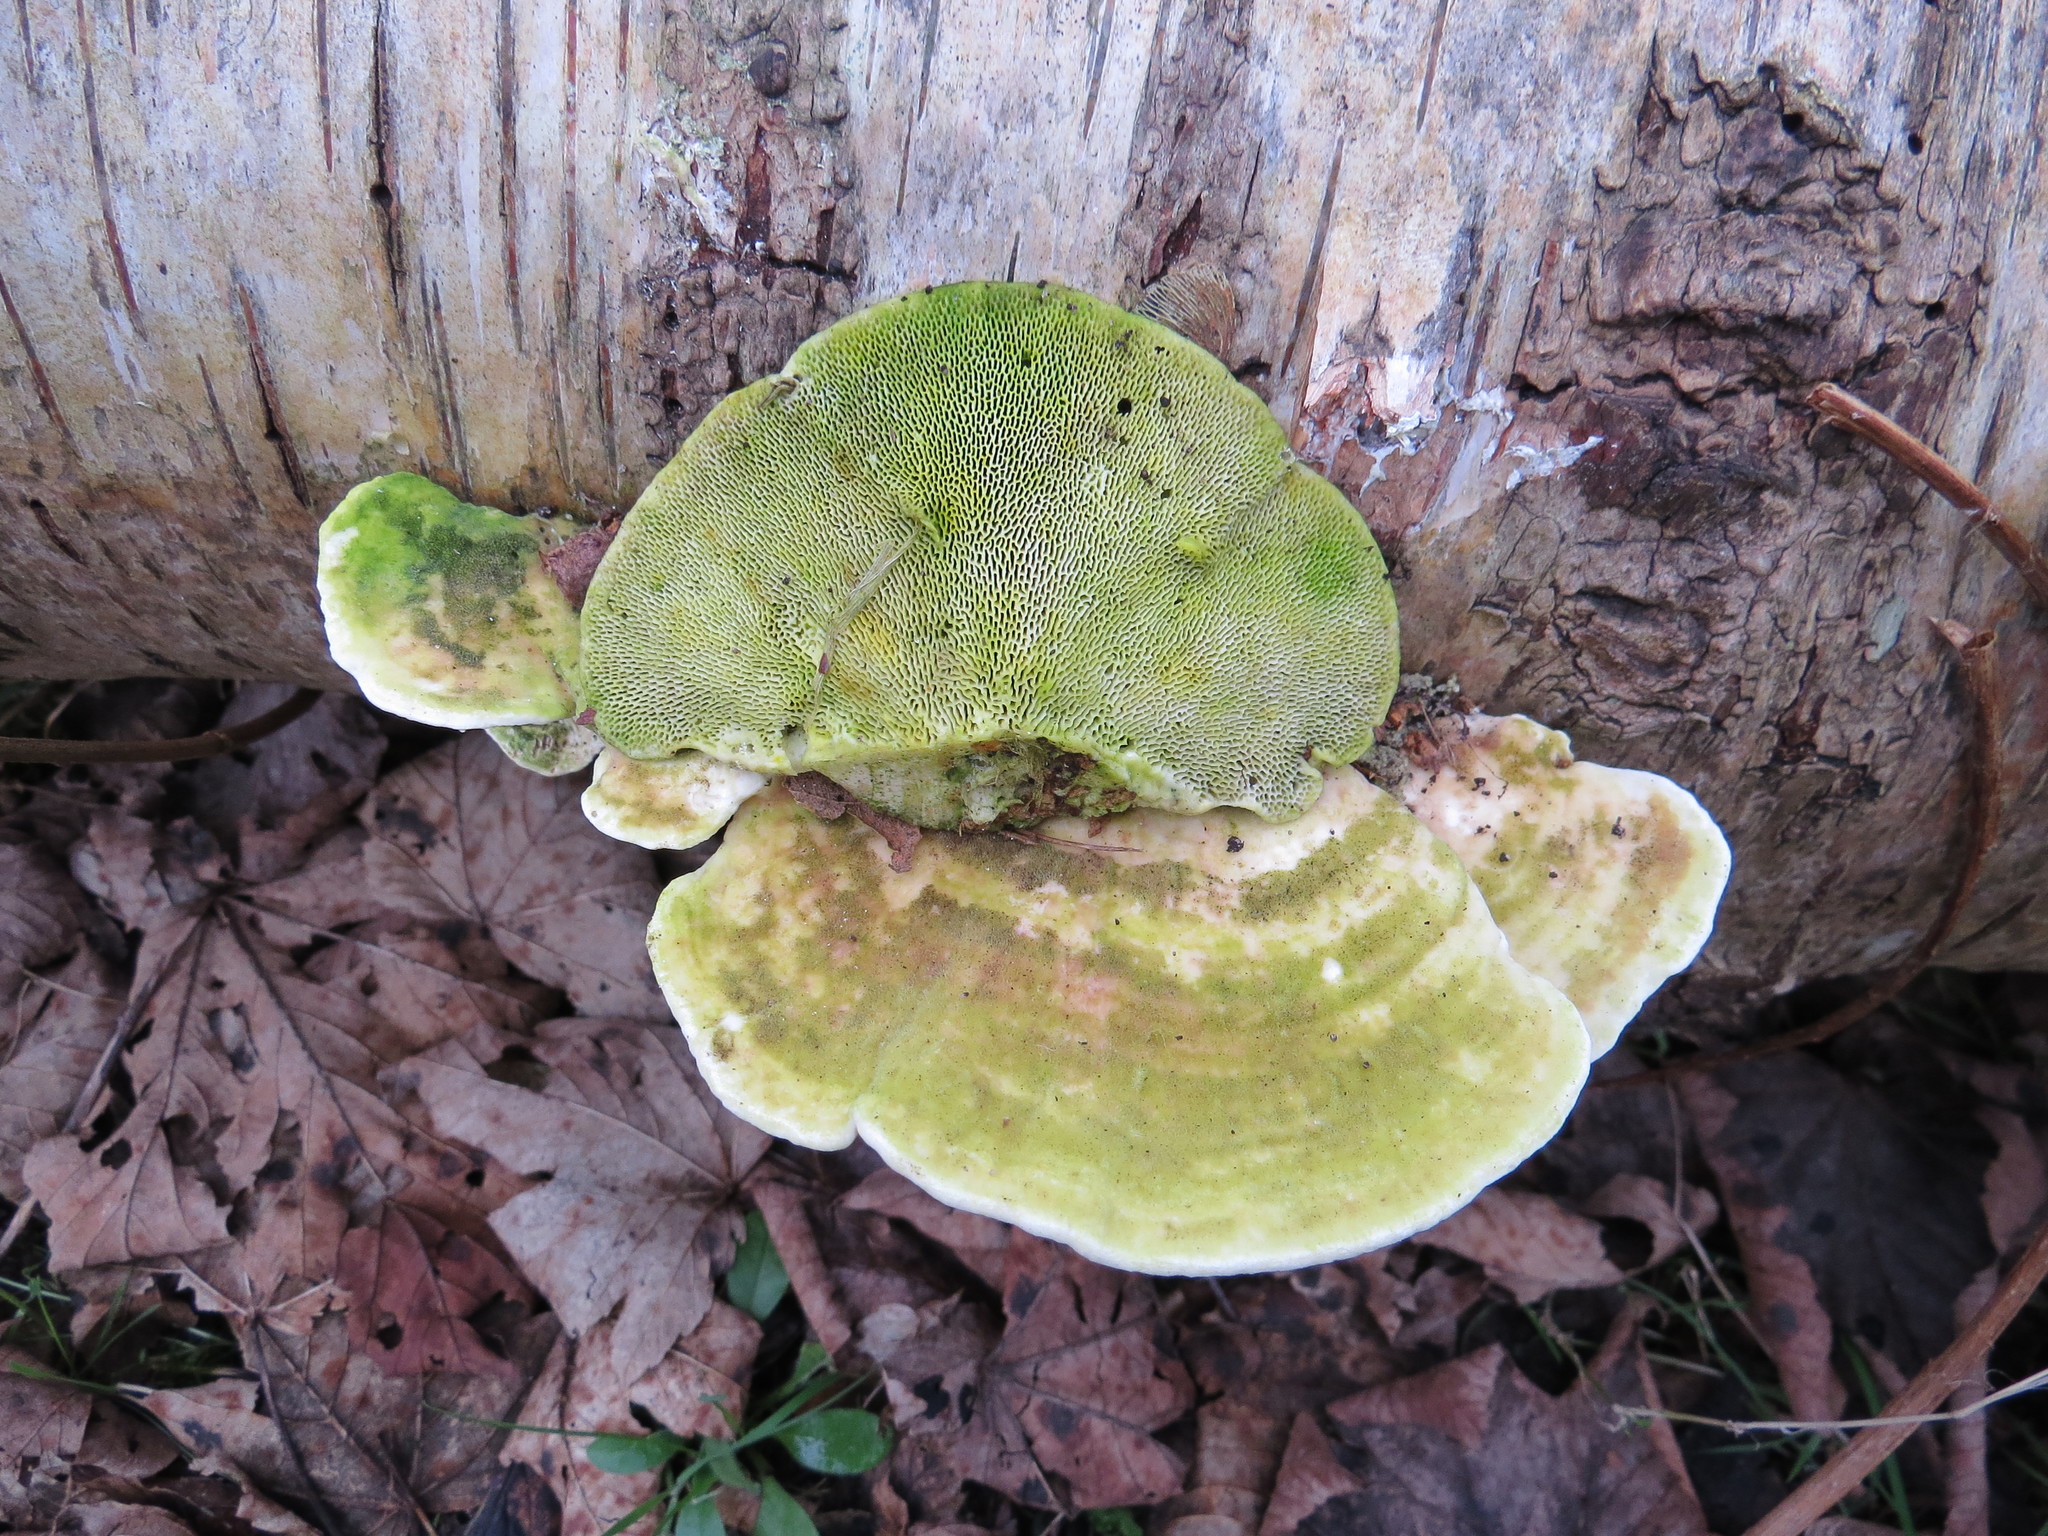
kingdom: Fungi
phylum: Basidiomycota
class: Agaricomycetes
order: Polyporales
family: Polyporaceae
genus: Trametes
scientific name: Trametes gibbosa
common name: Lumpy bracket
